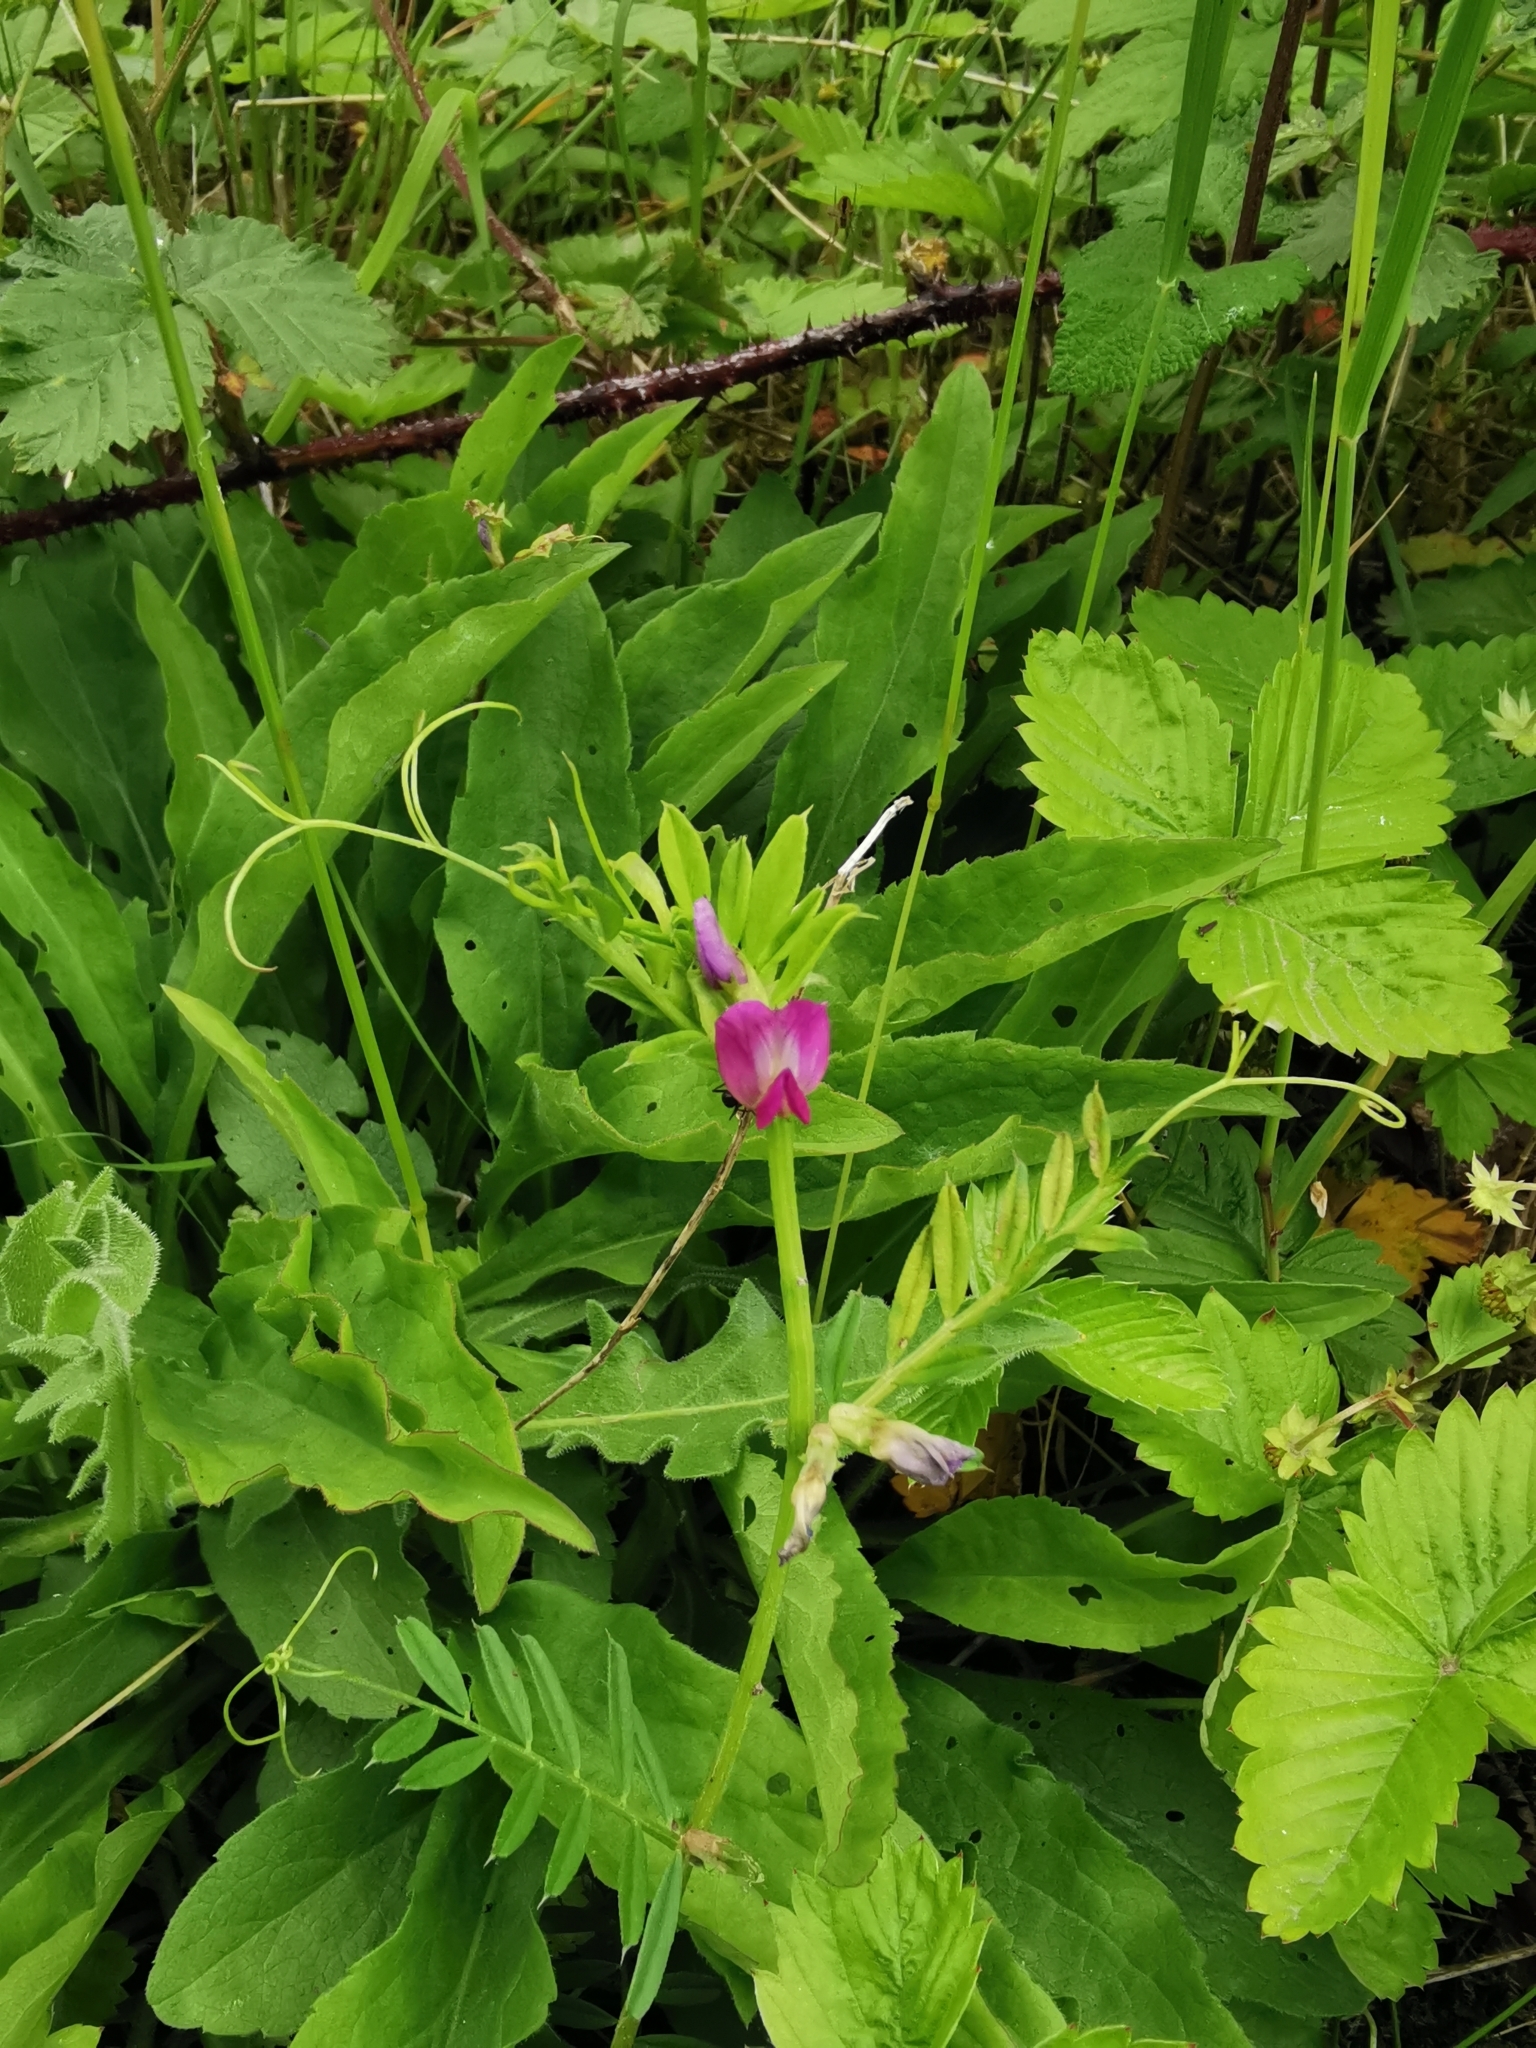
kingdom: Plantae
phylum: Tracheophyta
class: Magnoliopsida
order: Fabales
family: Fabaceae
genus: Vicia
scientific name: Vicia sativa
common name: Garden vetch
